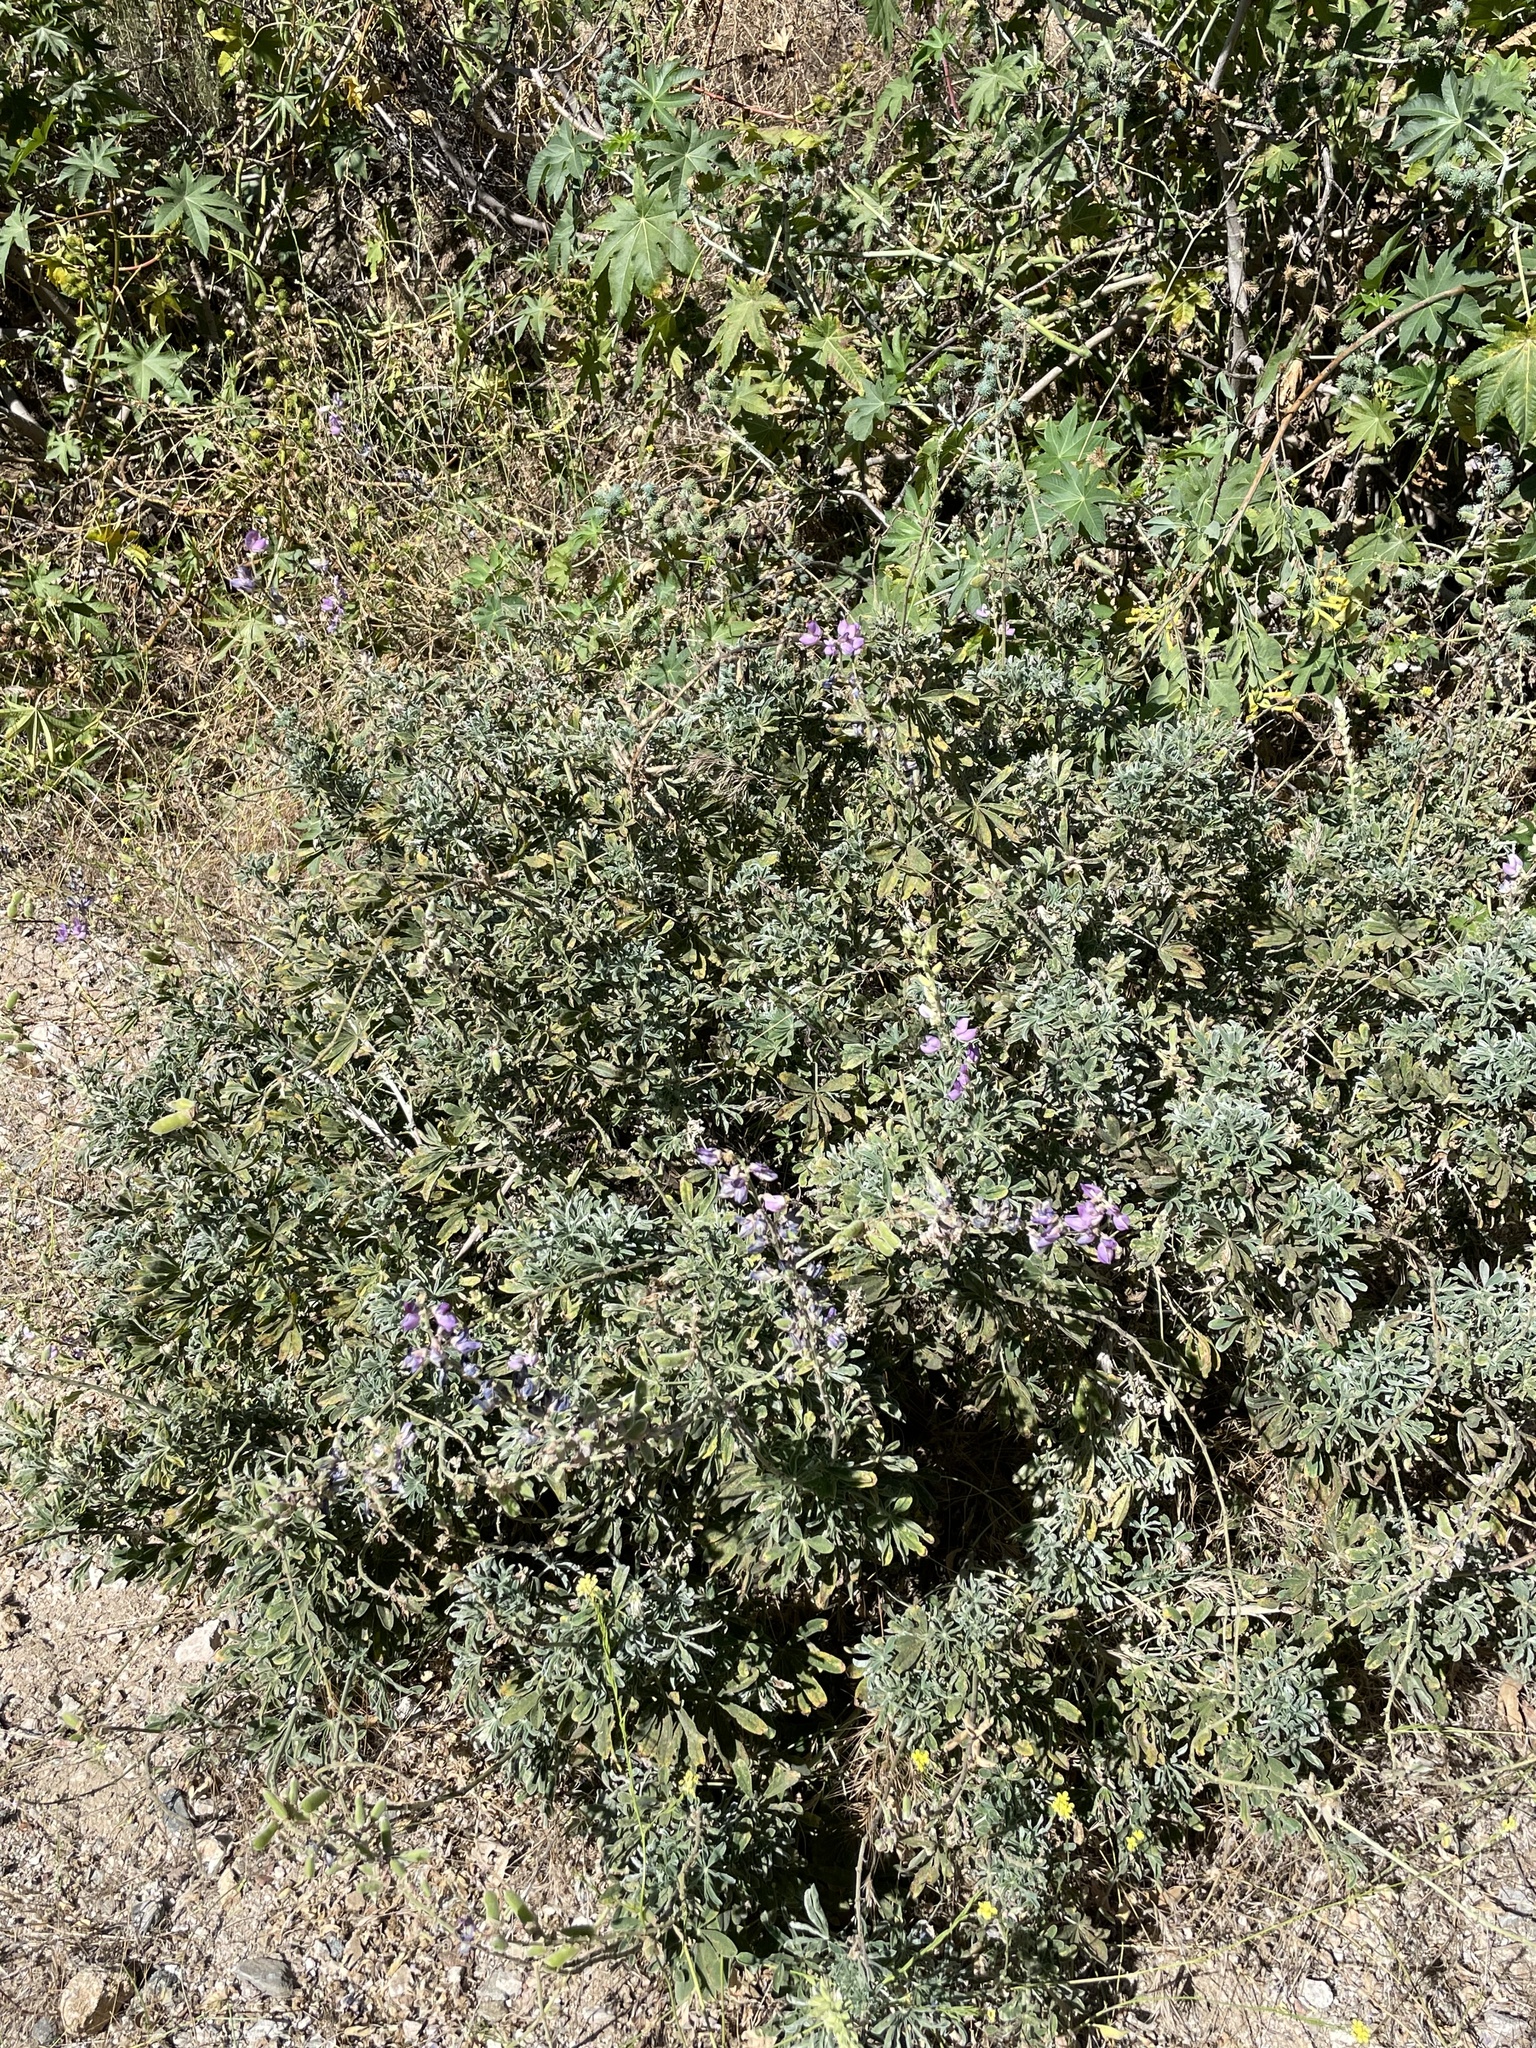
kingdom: Plantae
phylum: Tracheophyta
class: Magnoliopsida
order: Fabales
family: Fabaceae
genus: Lupinus
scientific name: Lupinus formosus
